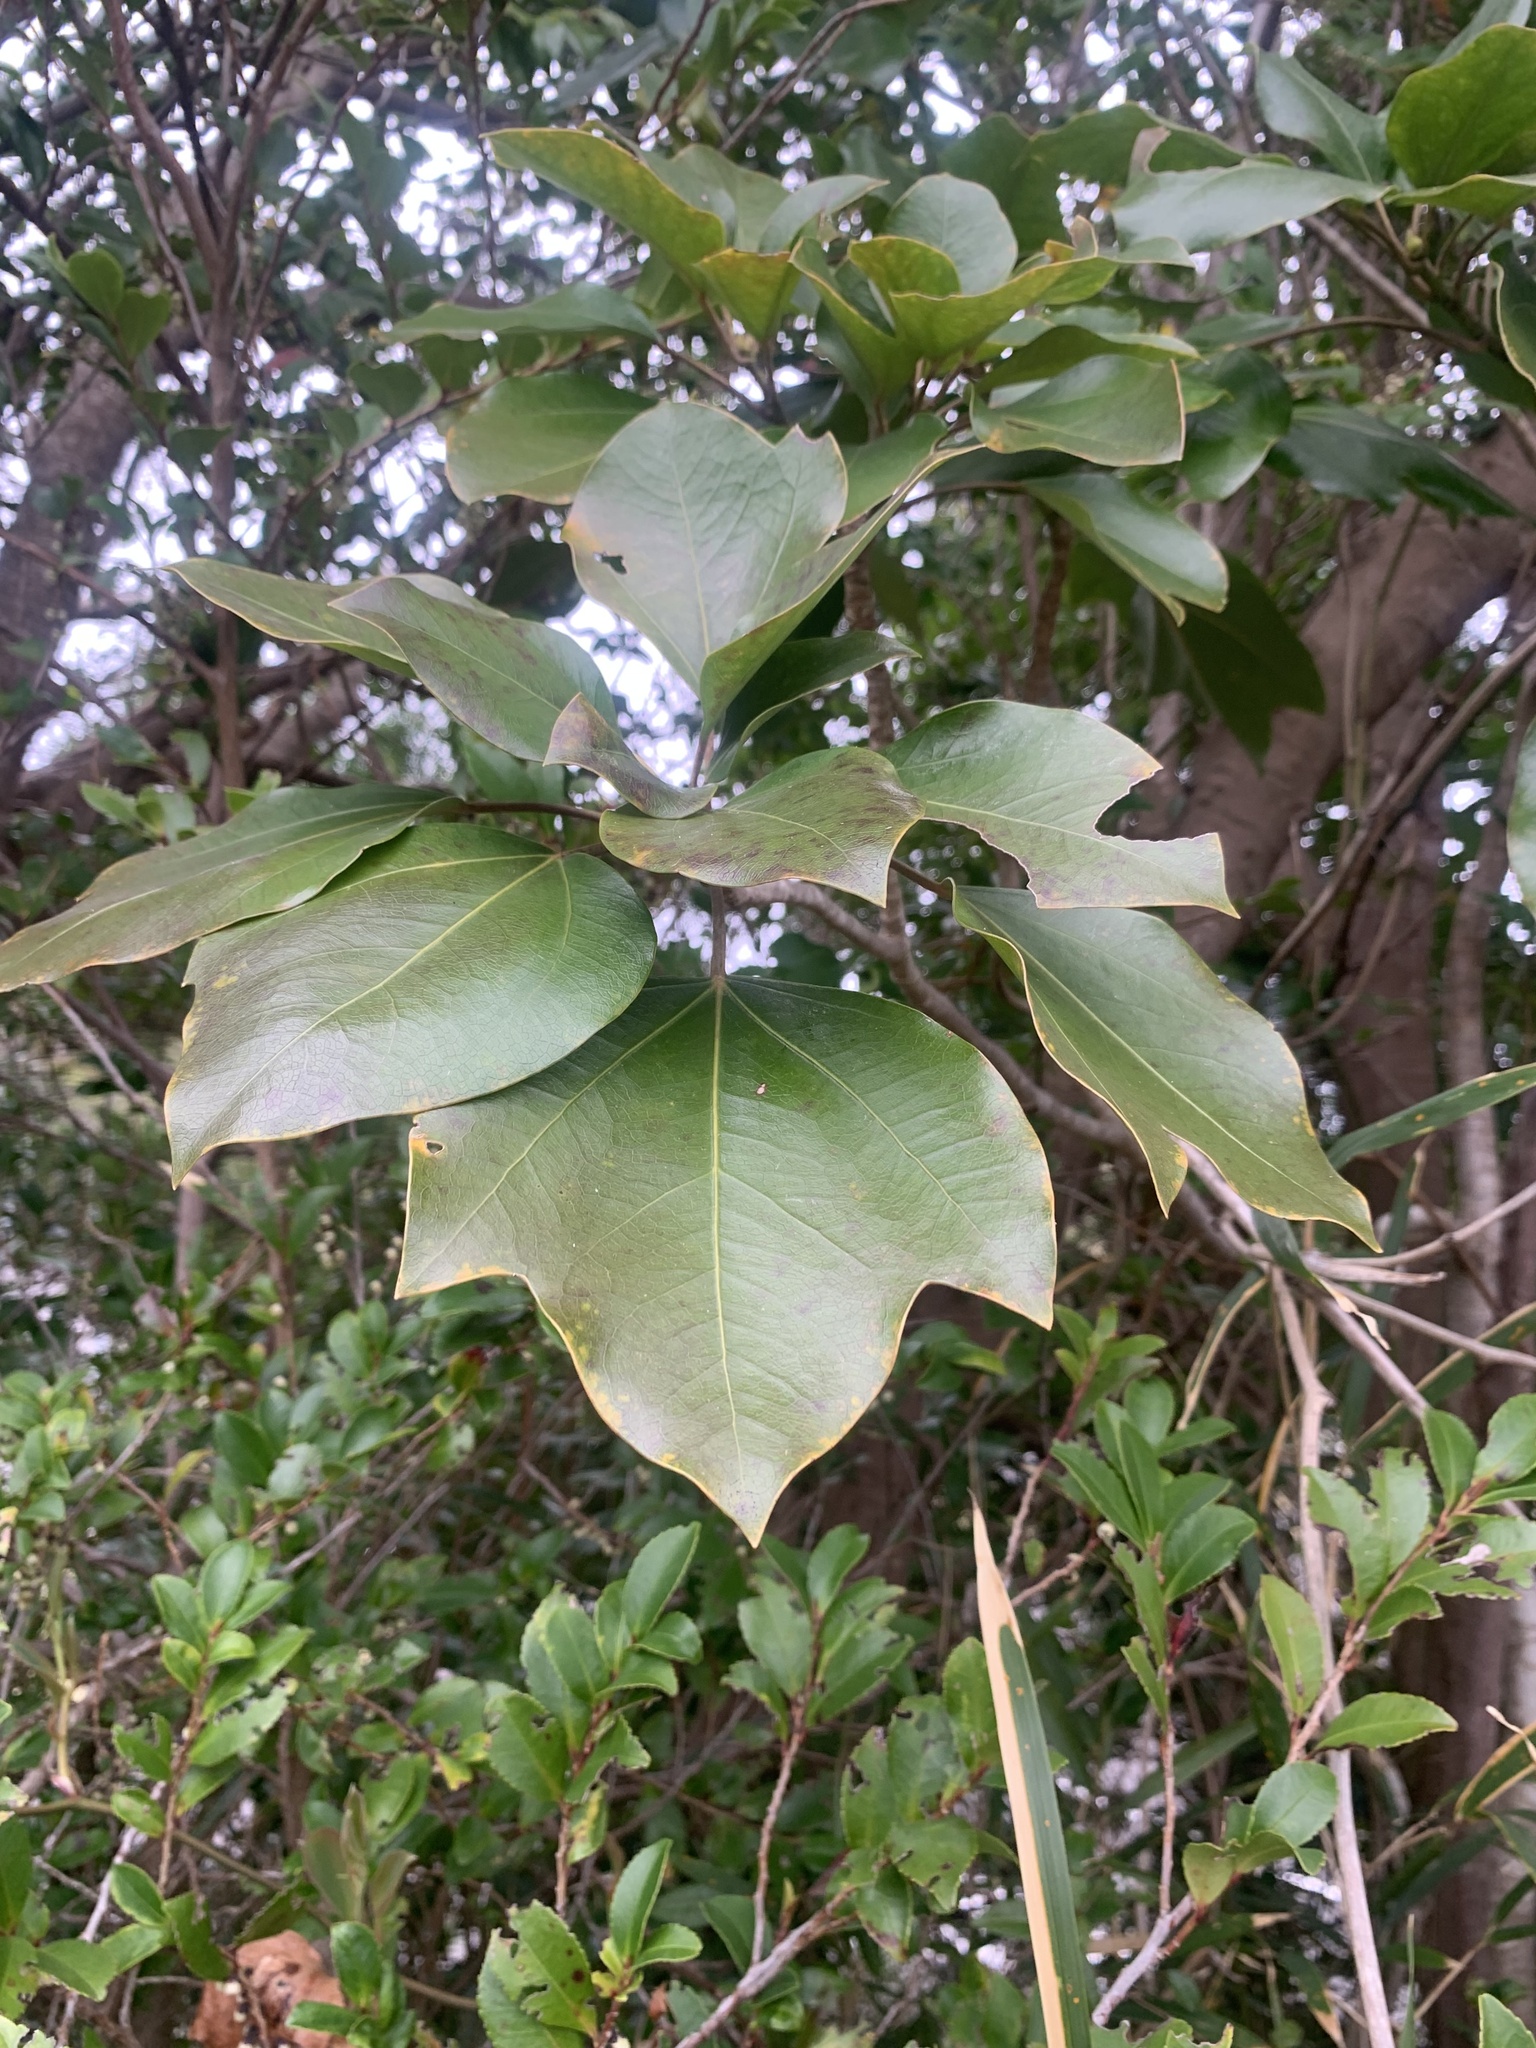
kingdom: Plantae
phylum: Tracheophyta
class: Magnoliopsida
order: Apiales
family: Araliaceae
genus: Dendropanax
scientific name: Dendropanax trifidus
